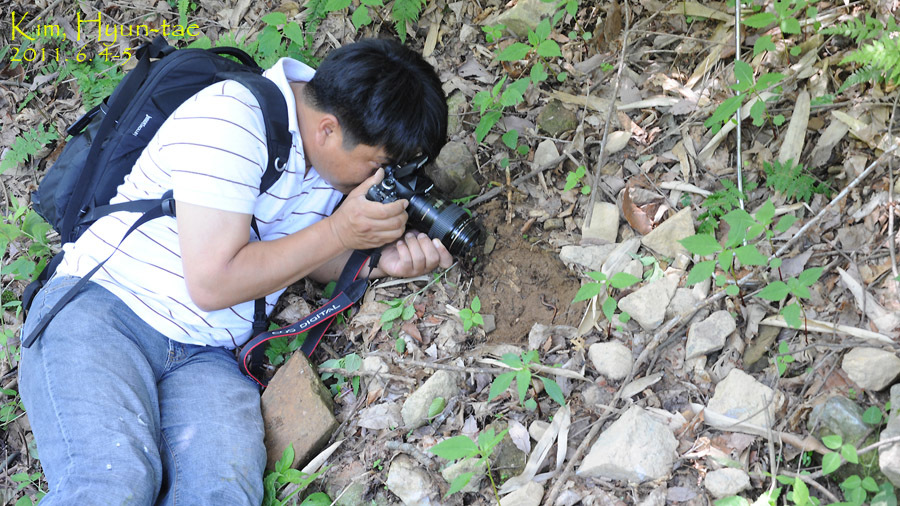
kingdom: Animalia
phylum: Chordata
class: Amphibia
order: Caudata
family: Plethodontidae
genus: Karsenia
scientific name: Karsenia koreana
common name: Korean crevice salamander
